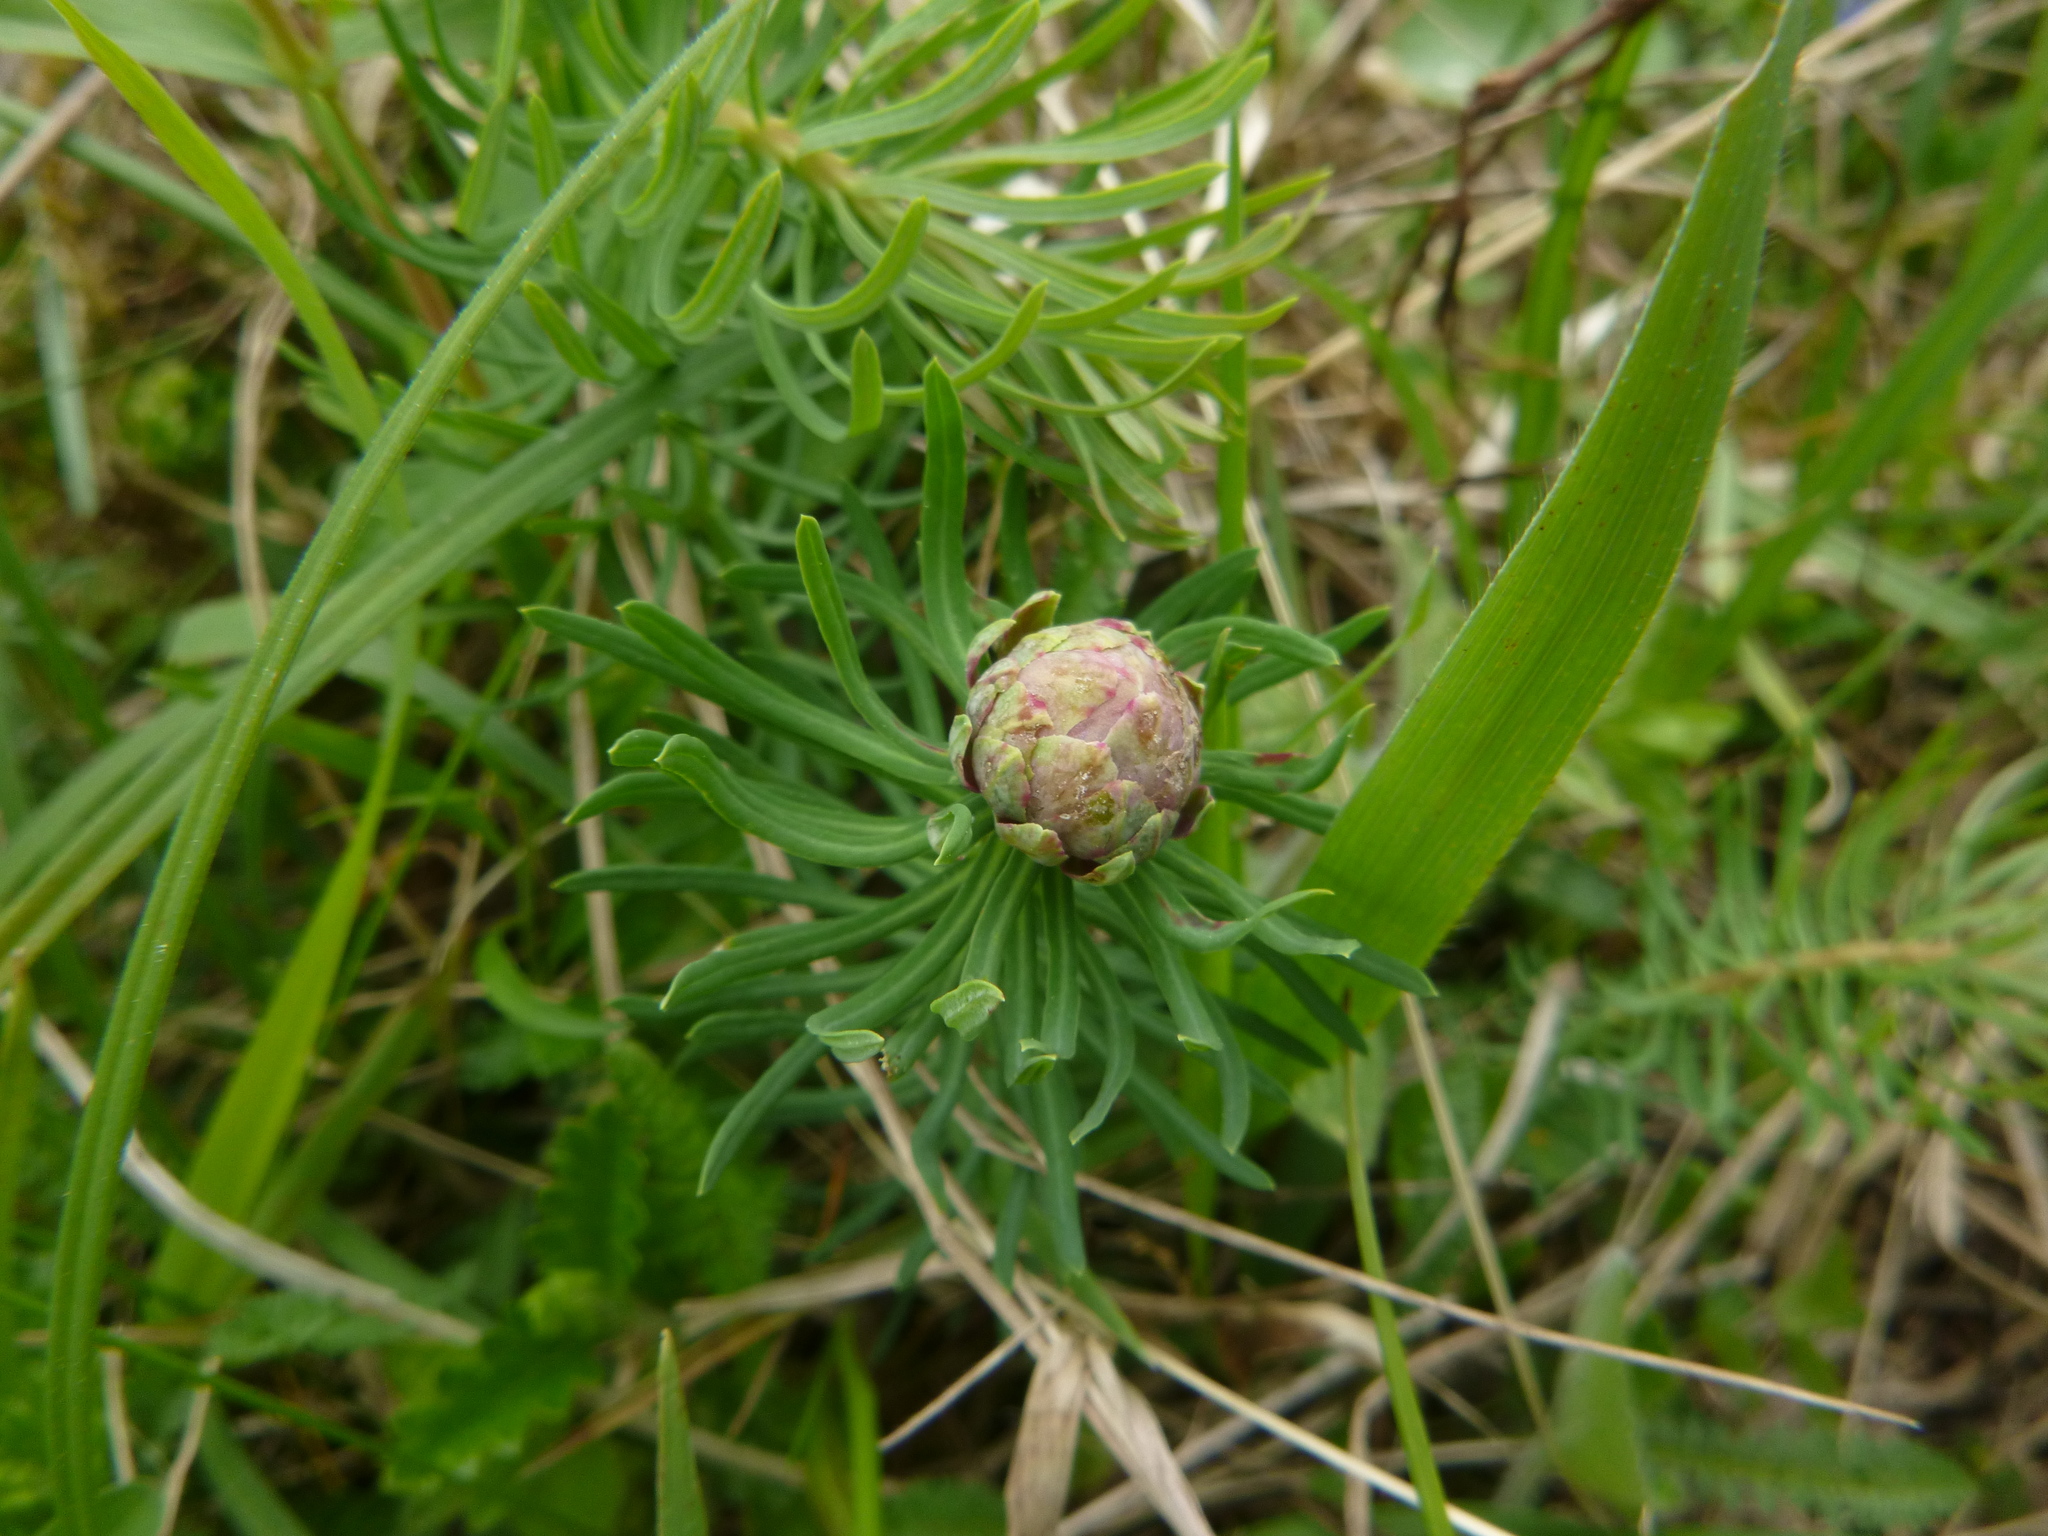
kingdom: Plantae
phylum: Tracheophyta
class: Magnoliopsida
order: Malpighiales
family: Euphorbiaceae
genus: Euphorbia
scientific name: Euphorbia cyparissias
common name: Cypress spurge
